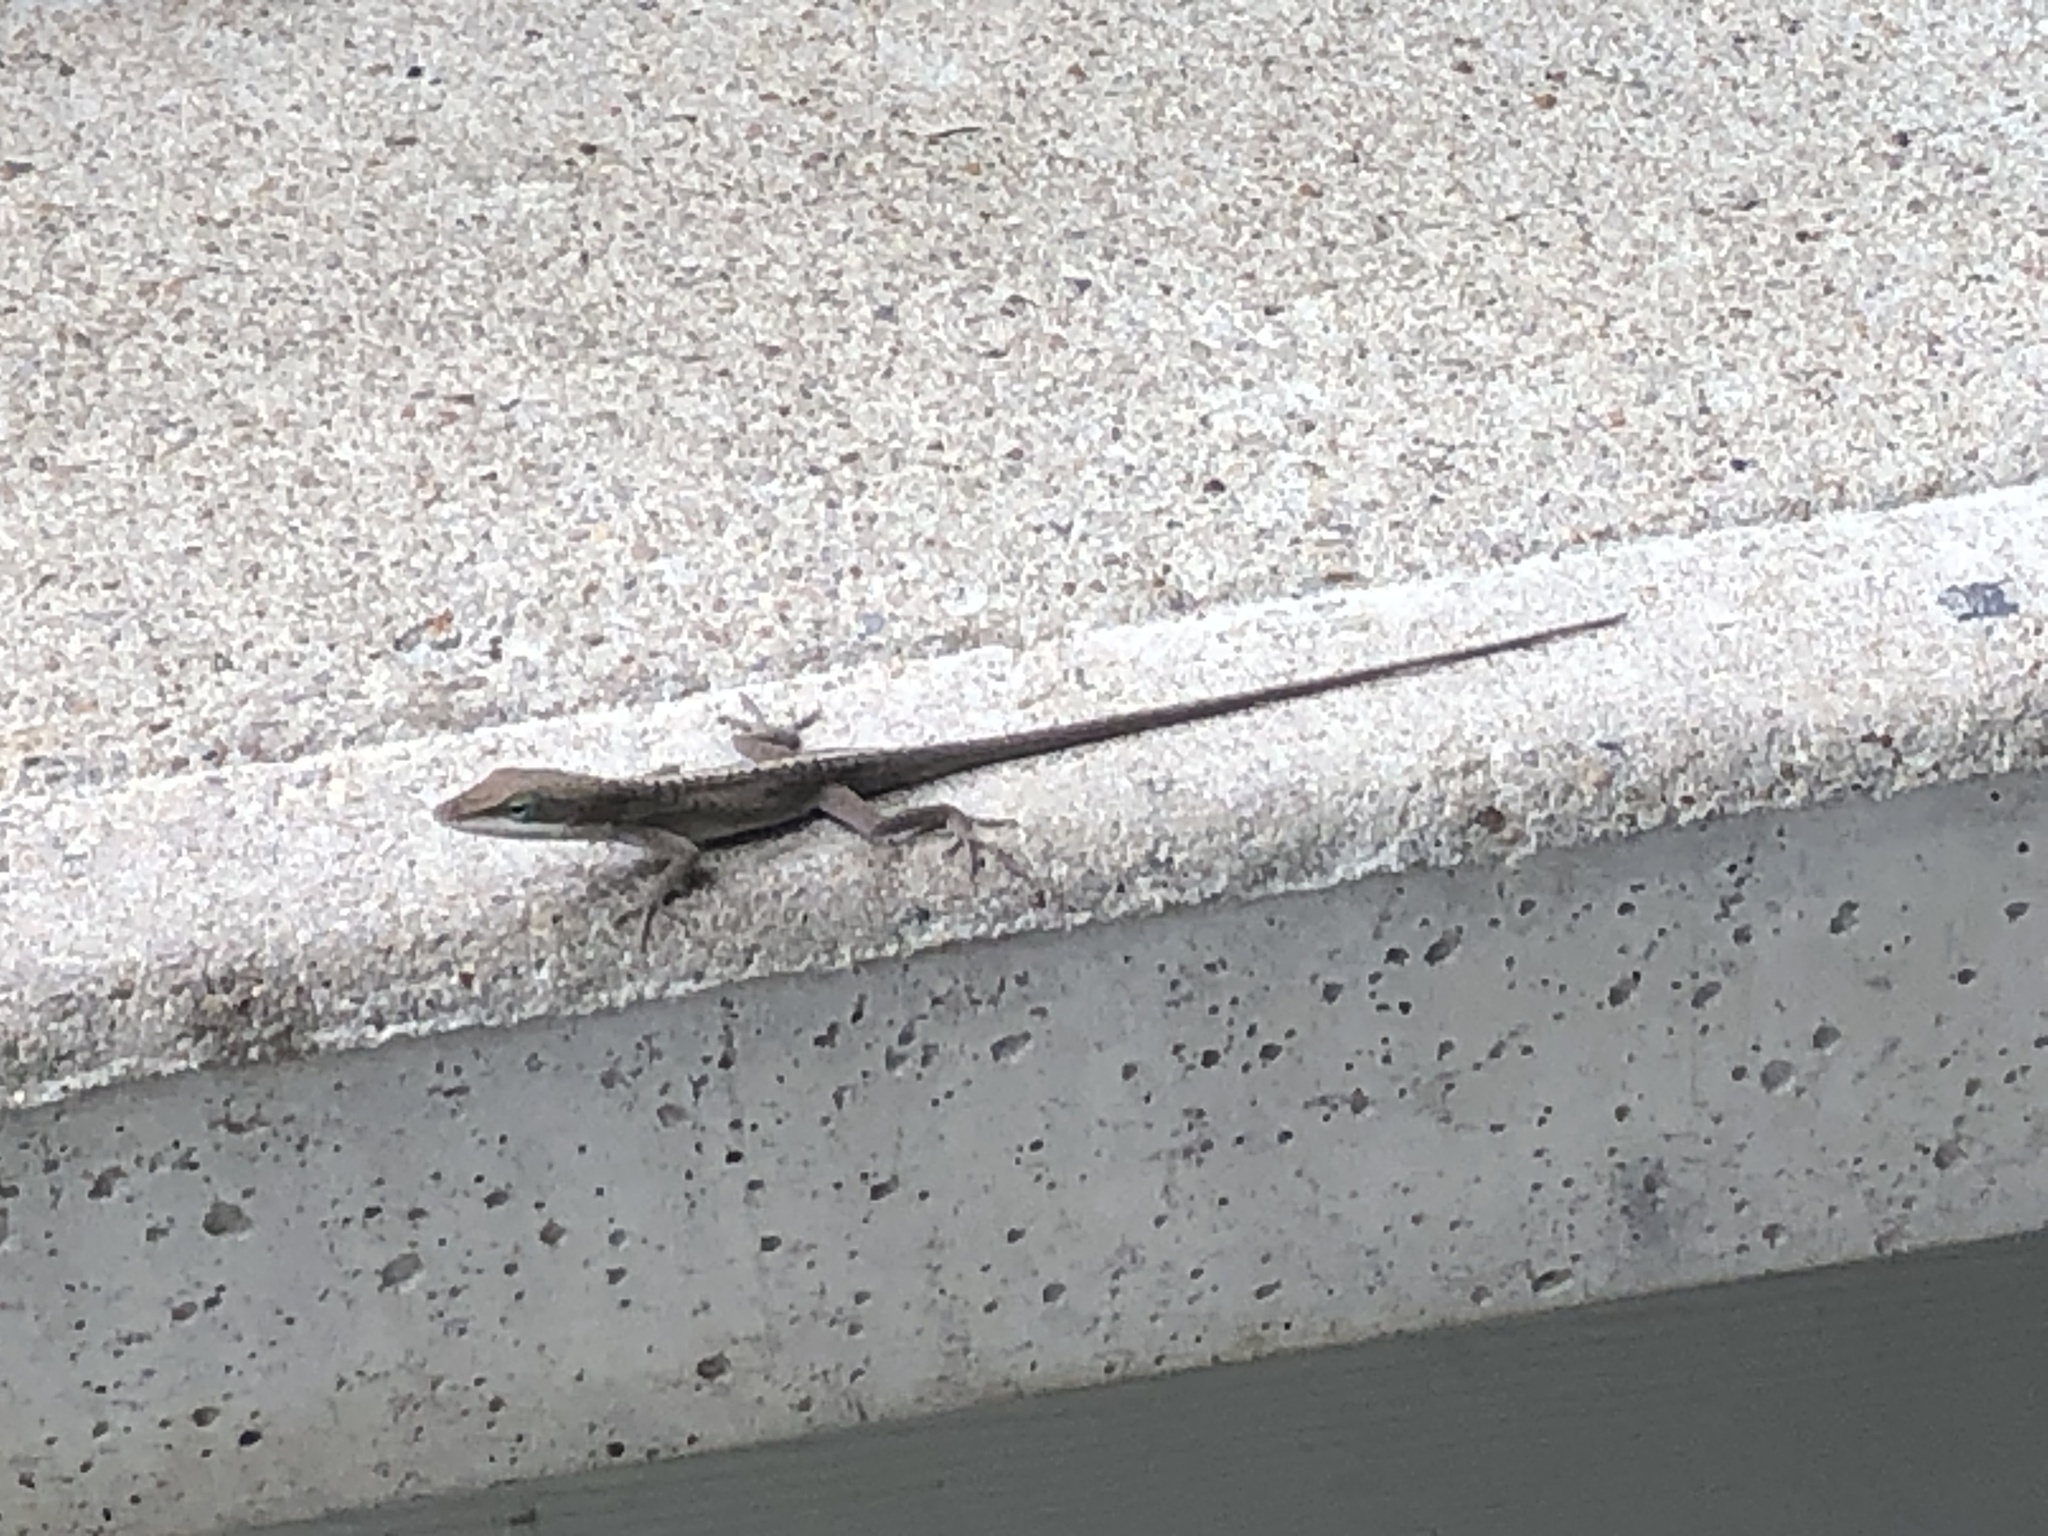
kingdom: Animalia
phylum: Chordata
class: Squamata
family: Dactyloidae
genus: Anolis
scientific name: Anolis carolinensis
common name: Green anole
